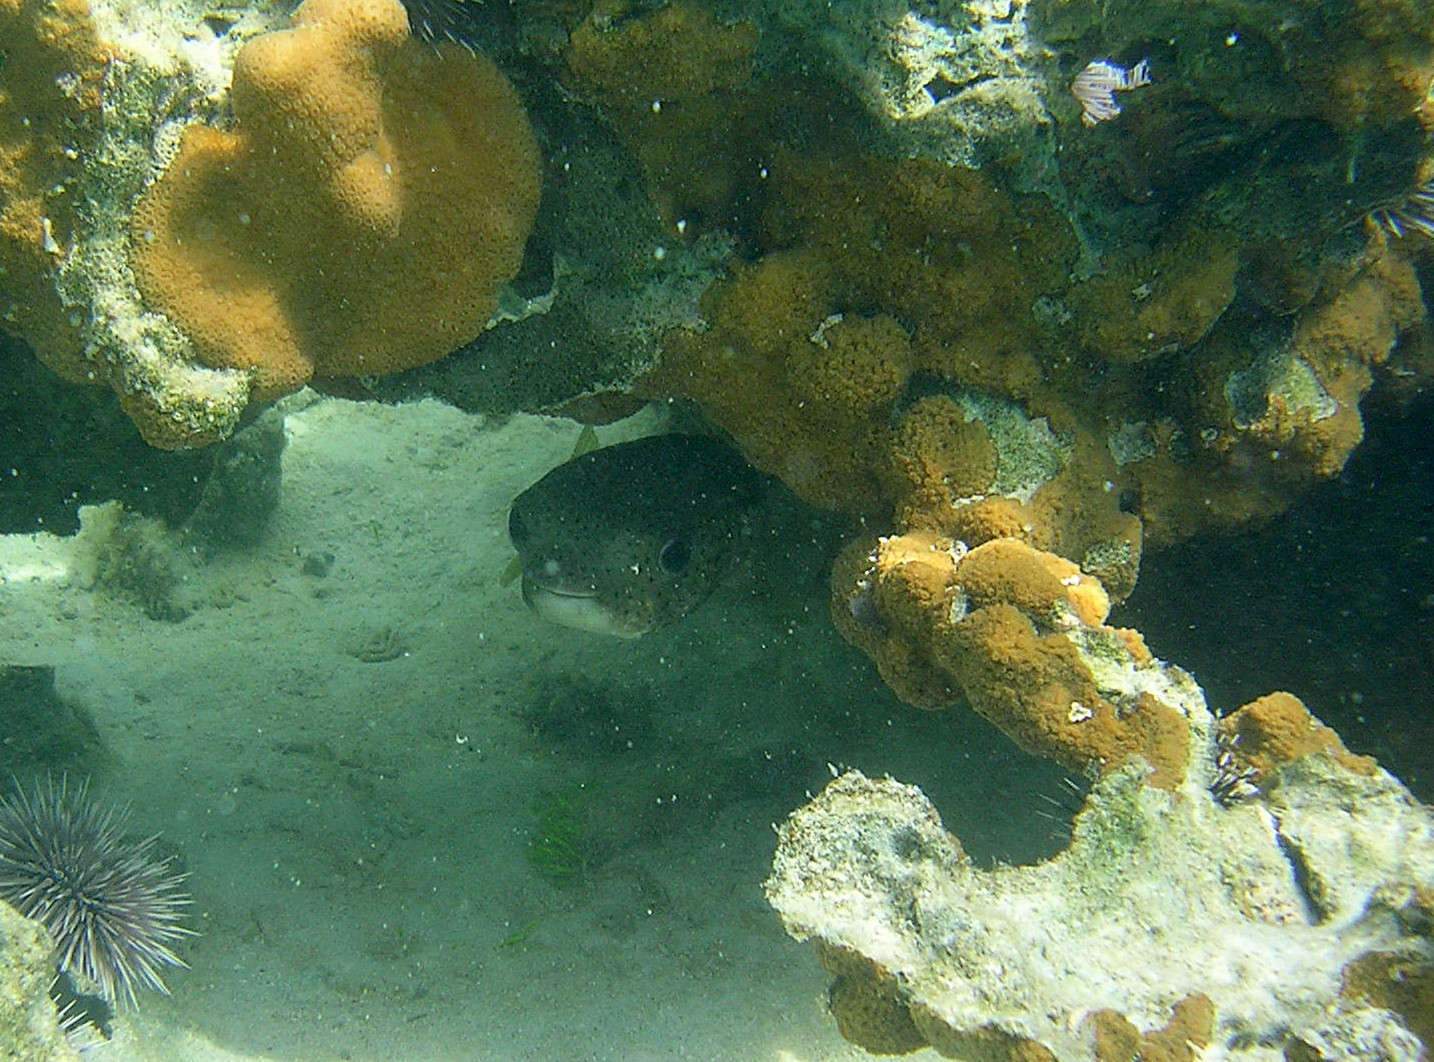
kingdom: Animalia
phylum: Chordata
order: Tetraodontiformes
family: Diodontidae
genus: Diodon
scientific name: Diodon hystrix
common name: Giant porcupinefish
